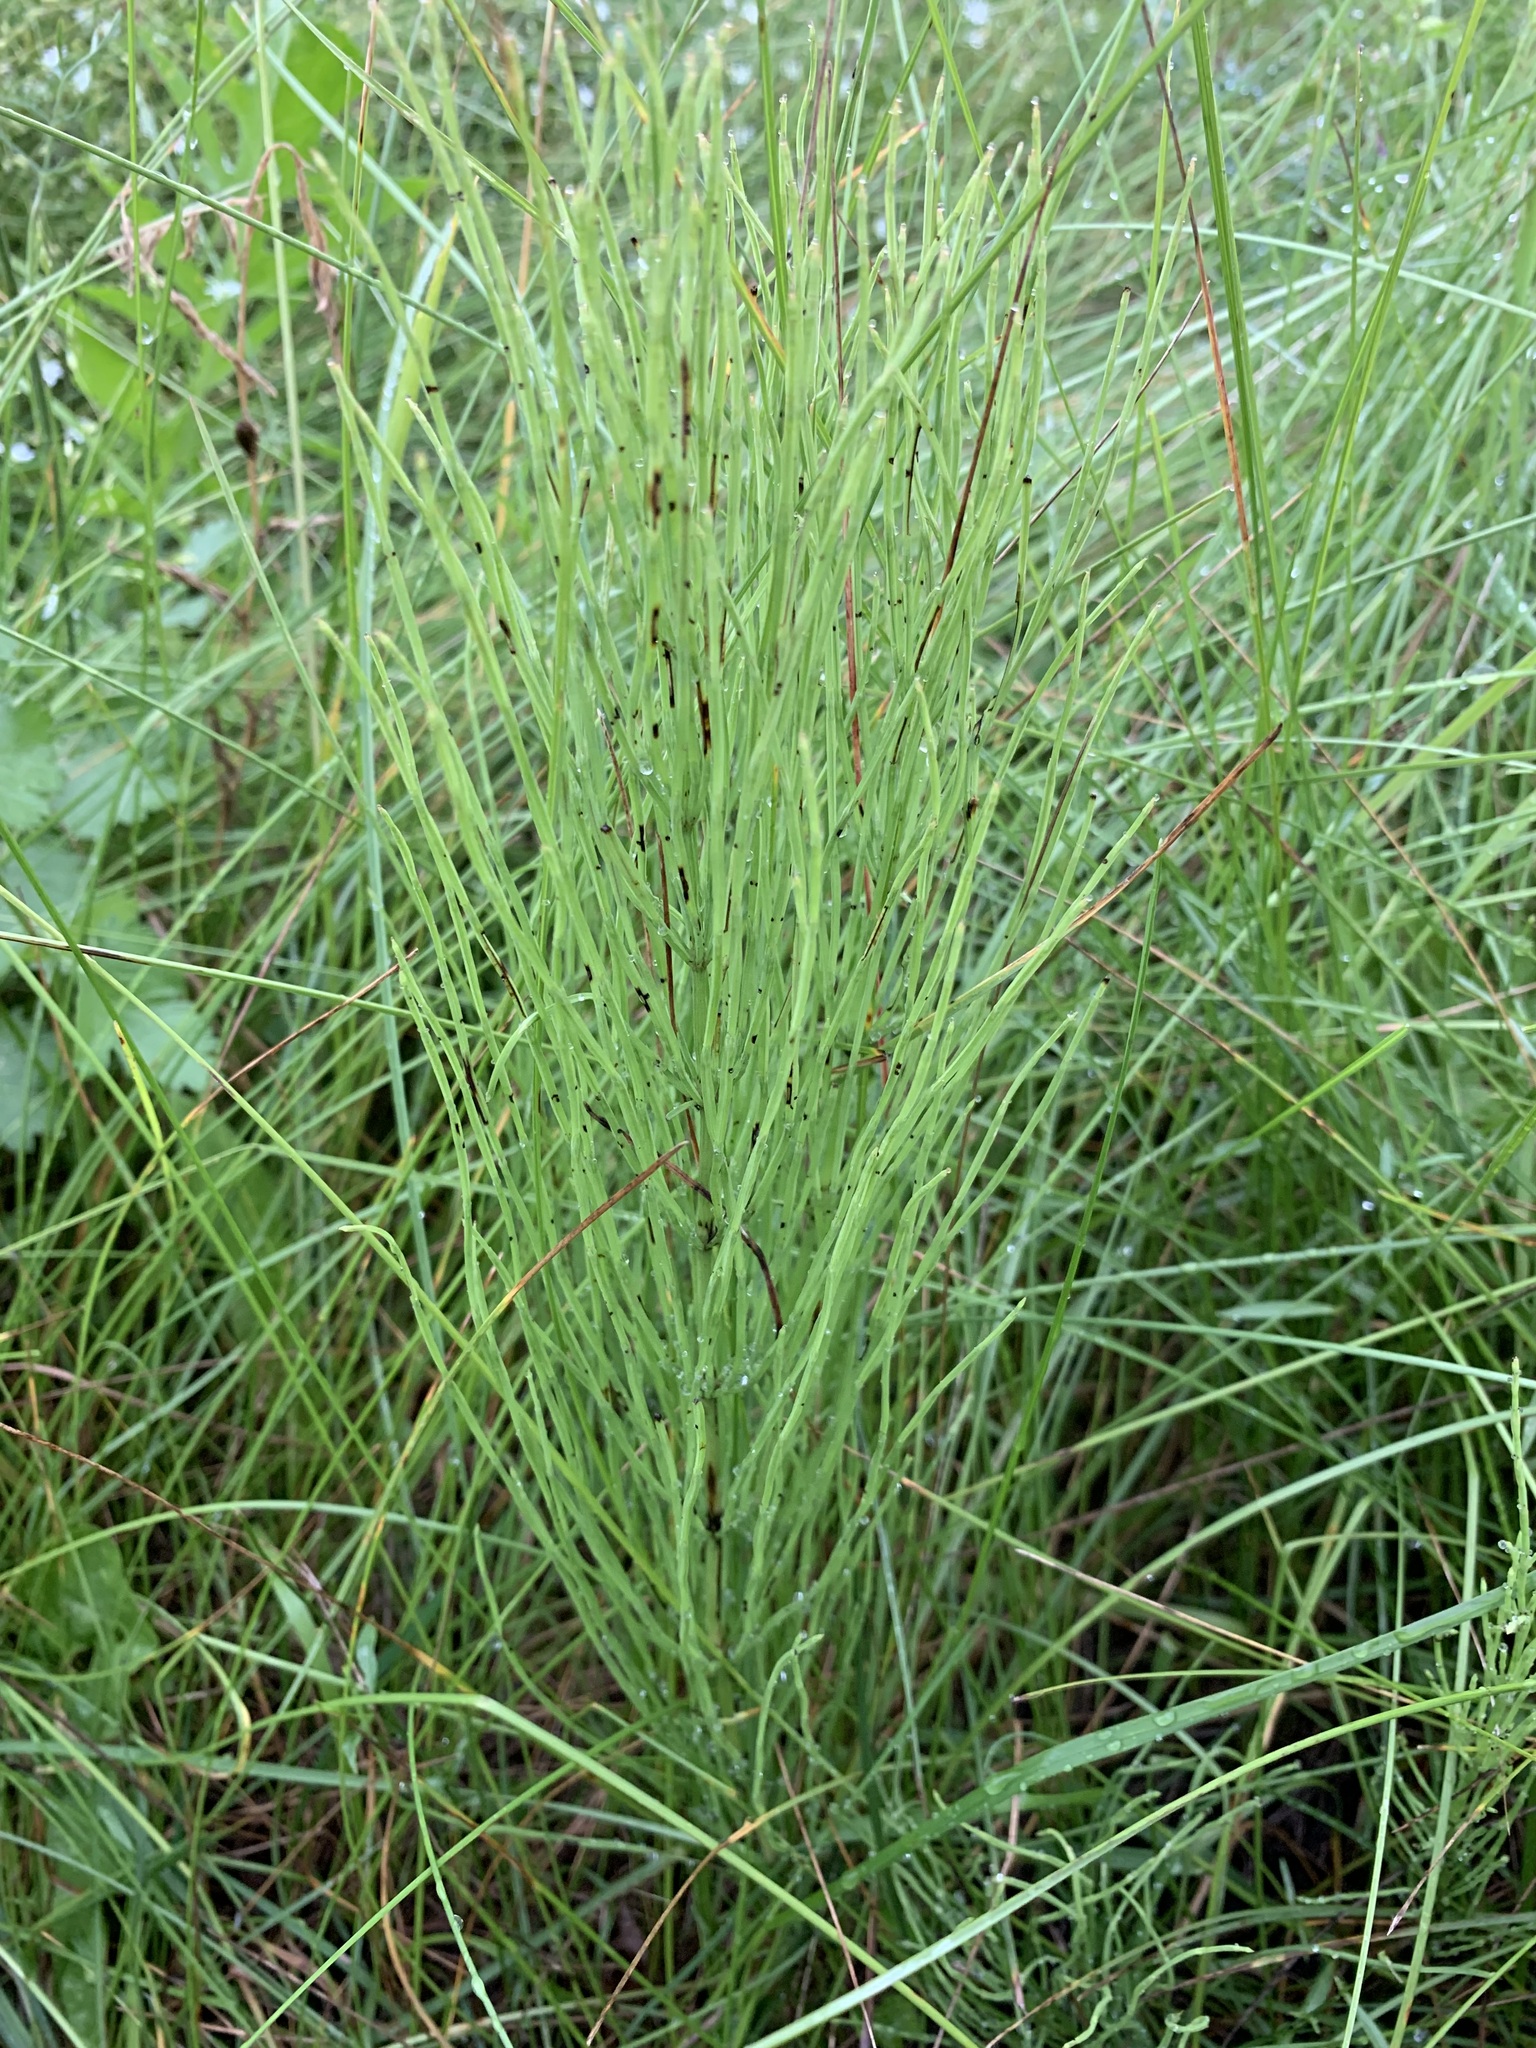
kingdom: Plantae
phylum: Tracheophyta
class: Polypodiopsida
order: Equisetales
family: Equisetaceae
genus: Equisetum
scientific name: Equisetum arvense
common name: Field horsetail
